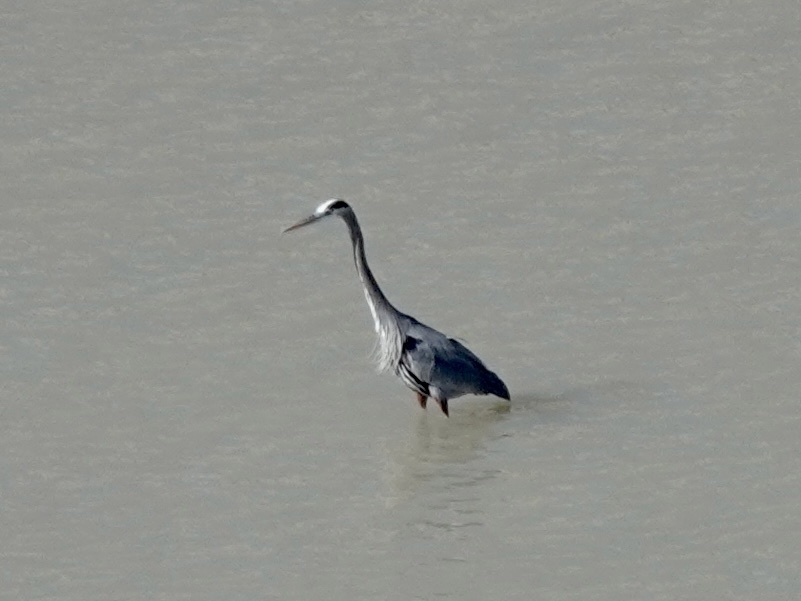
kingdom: Animalia
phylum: Chordata
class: Aves
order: Pelecaniformes
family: Ardeidae
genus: Ardea
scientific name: Ardea herodias
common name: Great blue heron
